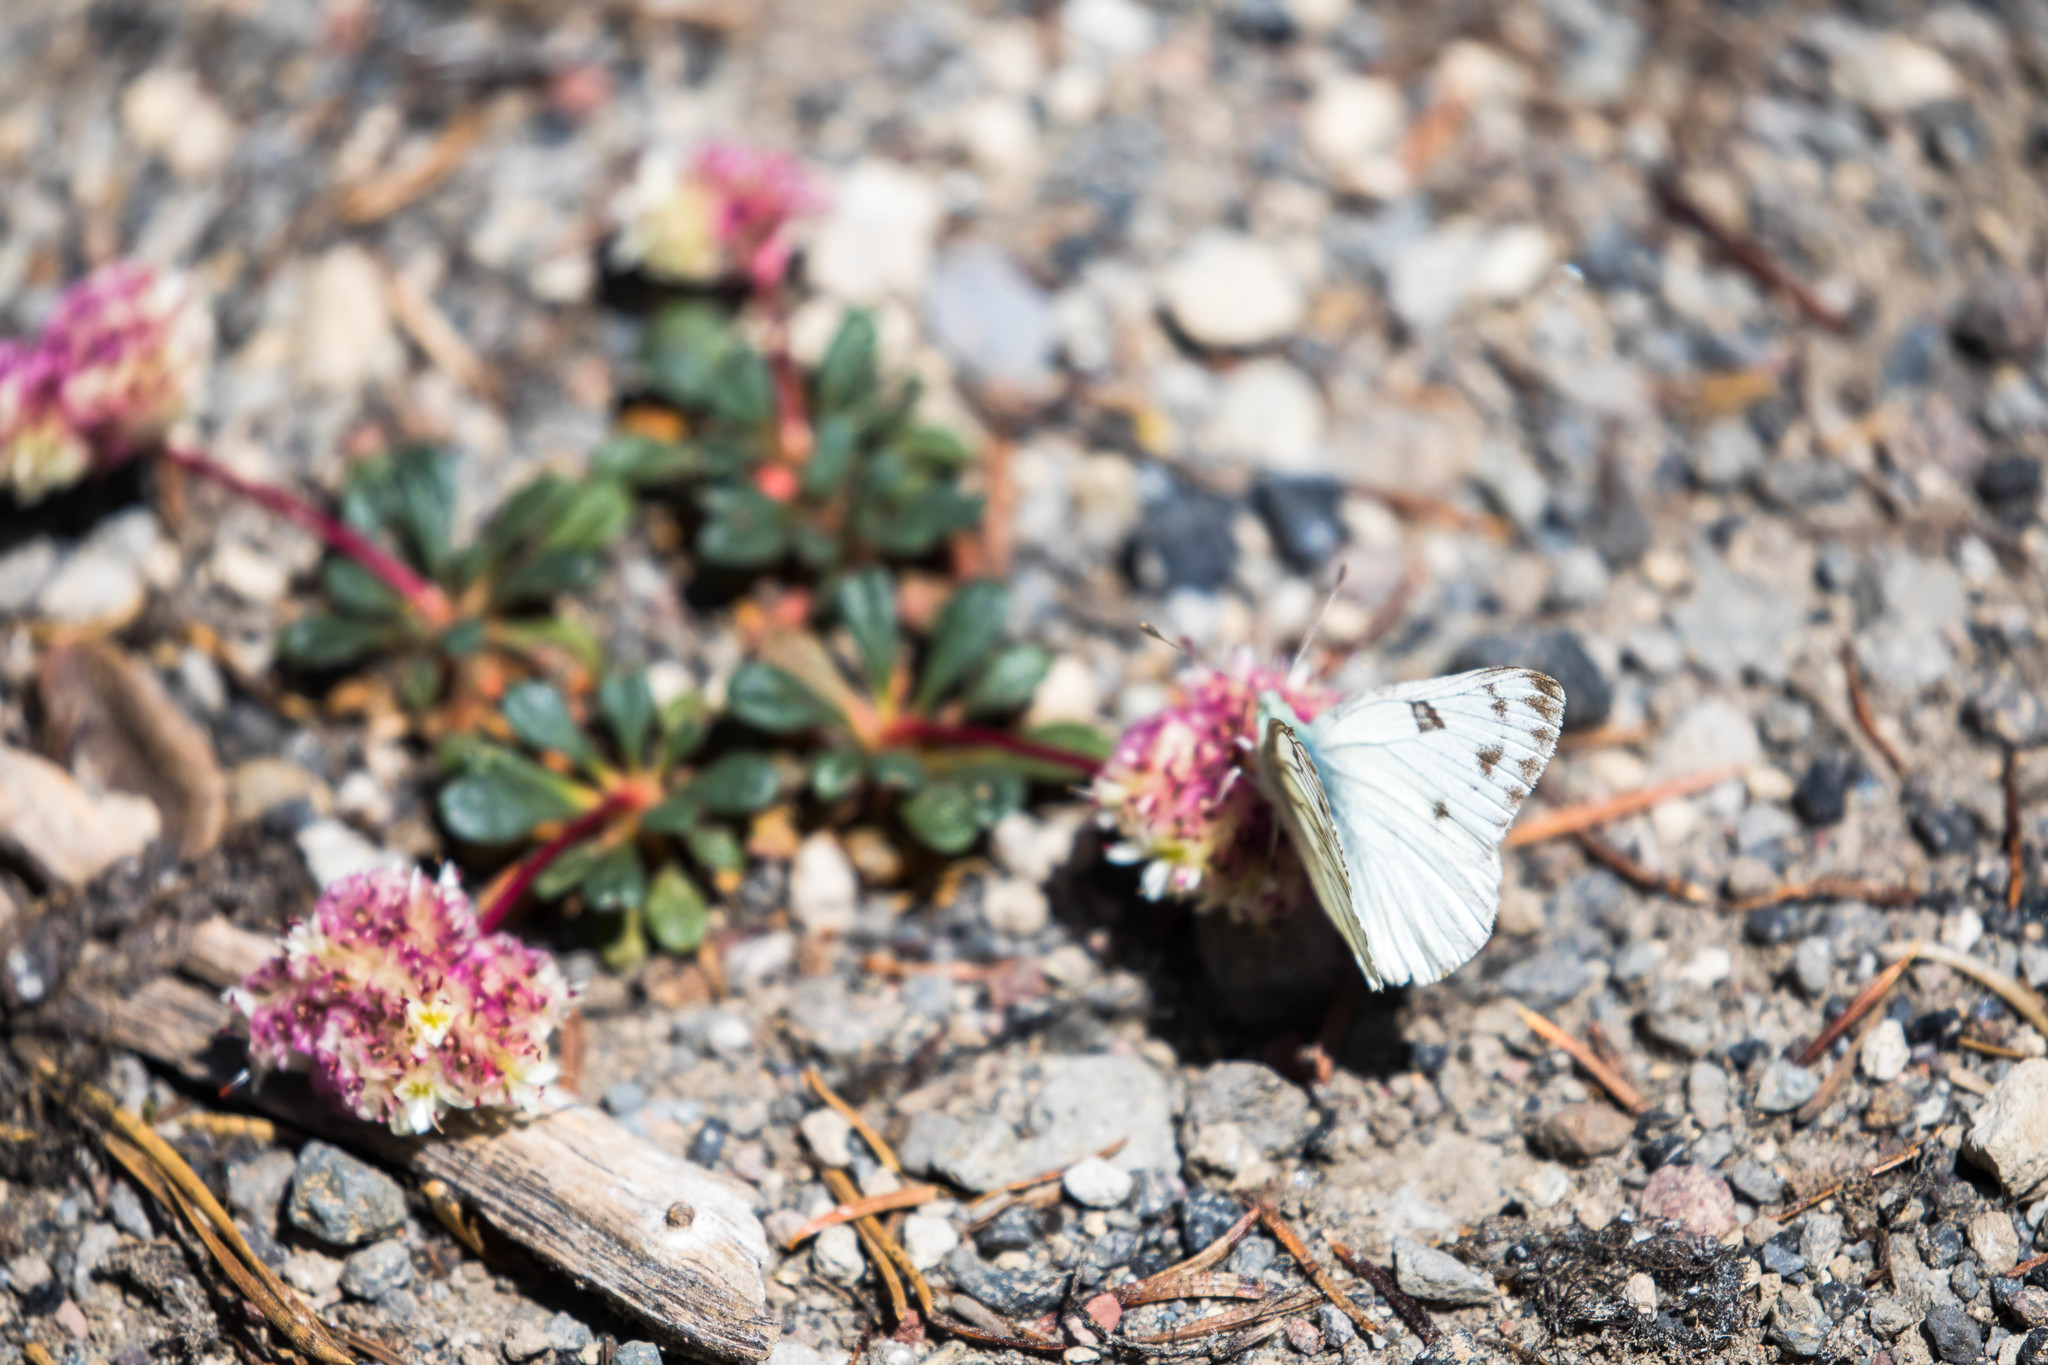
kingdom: Animalia
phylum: Arthropoda
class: Insecta
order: Lepidoptera
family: Pieridae
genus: Pontia
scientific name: Pontia occidentalis
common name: Western white
